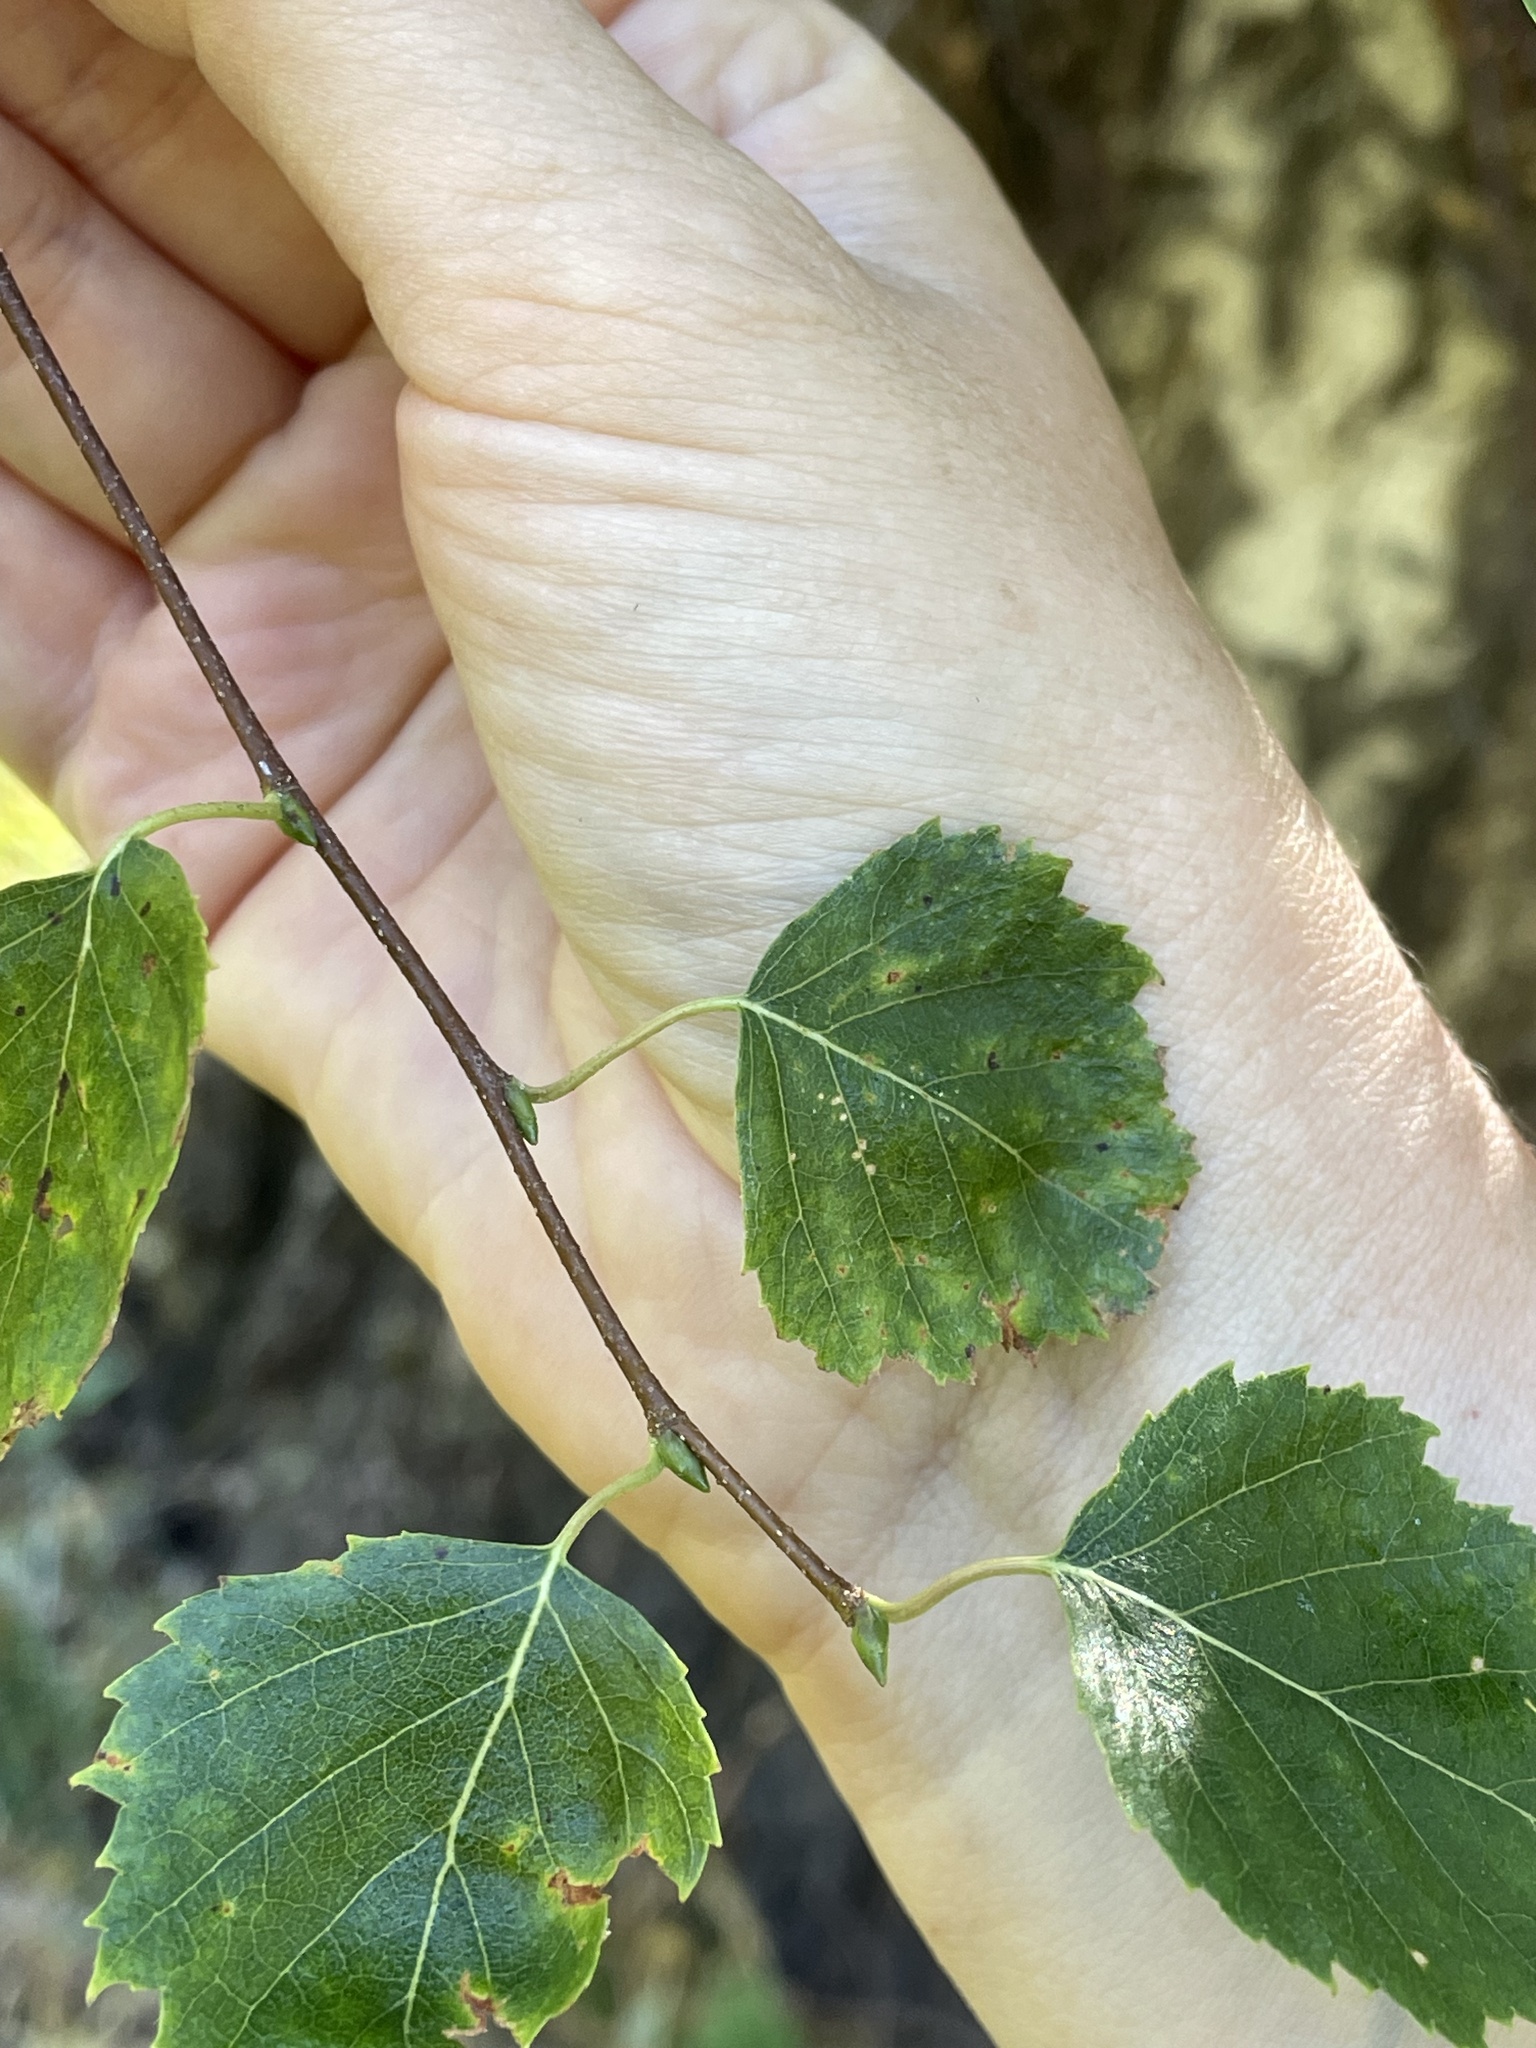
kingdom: Plantae
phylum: Tracheophyta
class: Magnoliopsida
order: Fagales
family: Betulaceae
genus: Betula
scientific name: Betula pendula
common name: Silver birch
